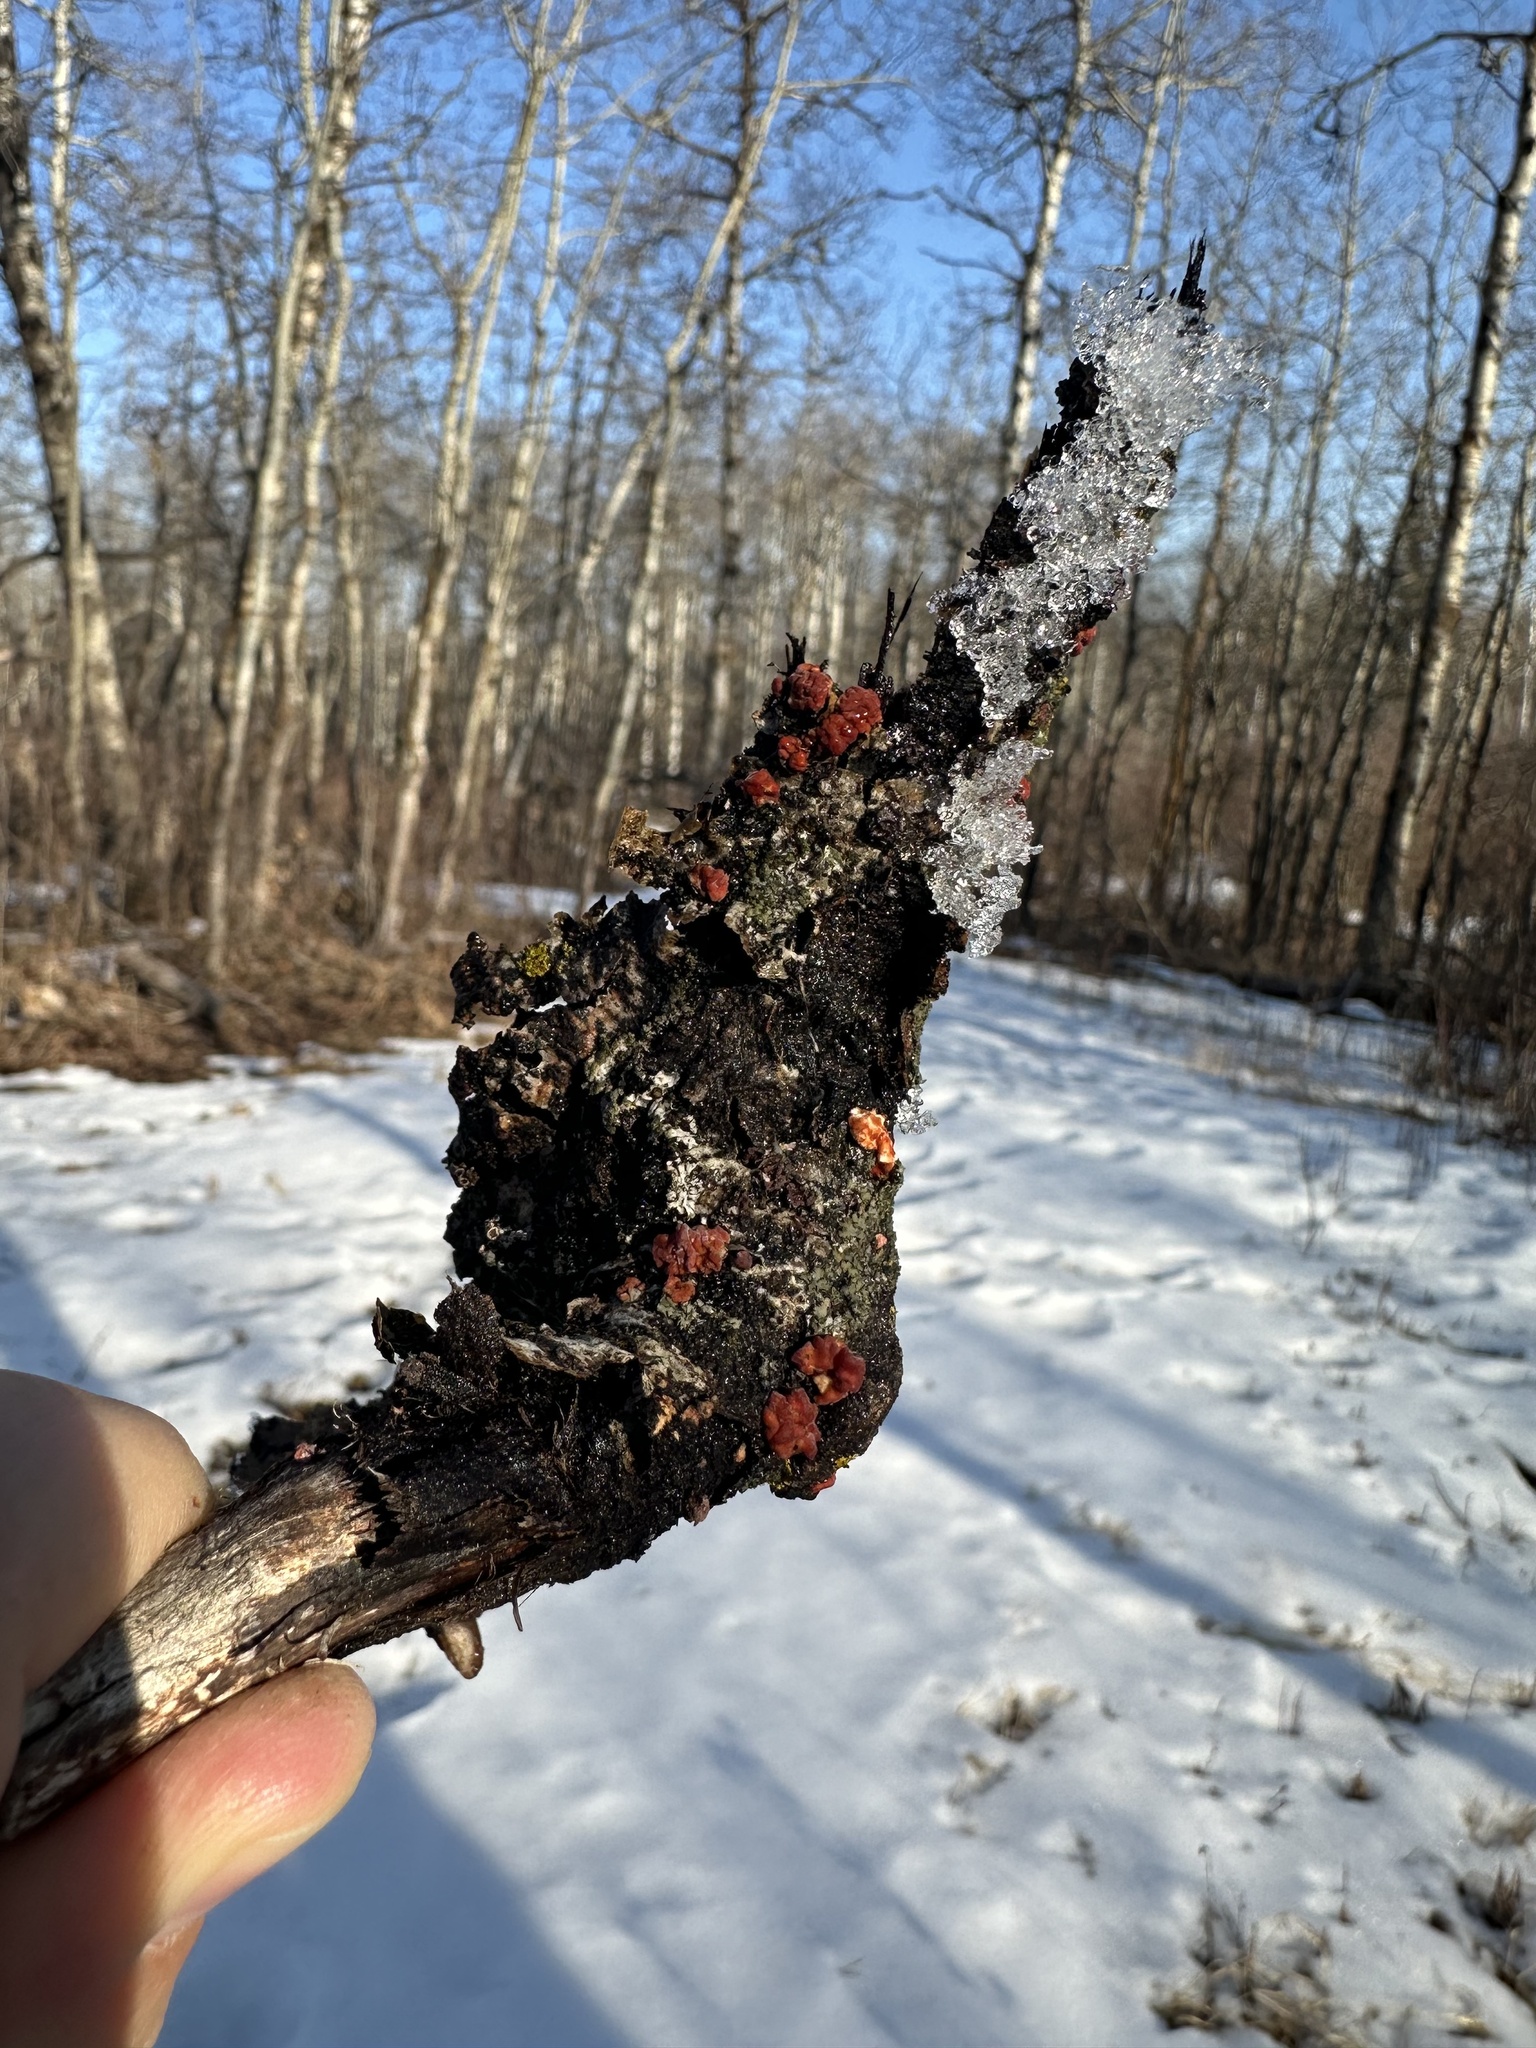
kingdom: Fungi
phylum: Basidiomycota
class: Agaricomycetes
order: Russulales
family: Peniophoraceae
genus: Peniophora
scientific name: Peniophora rufa
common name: Red tree brain fungus
